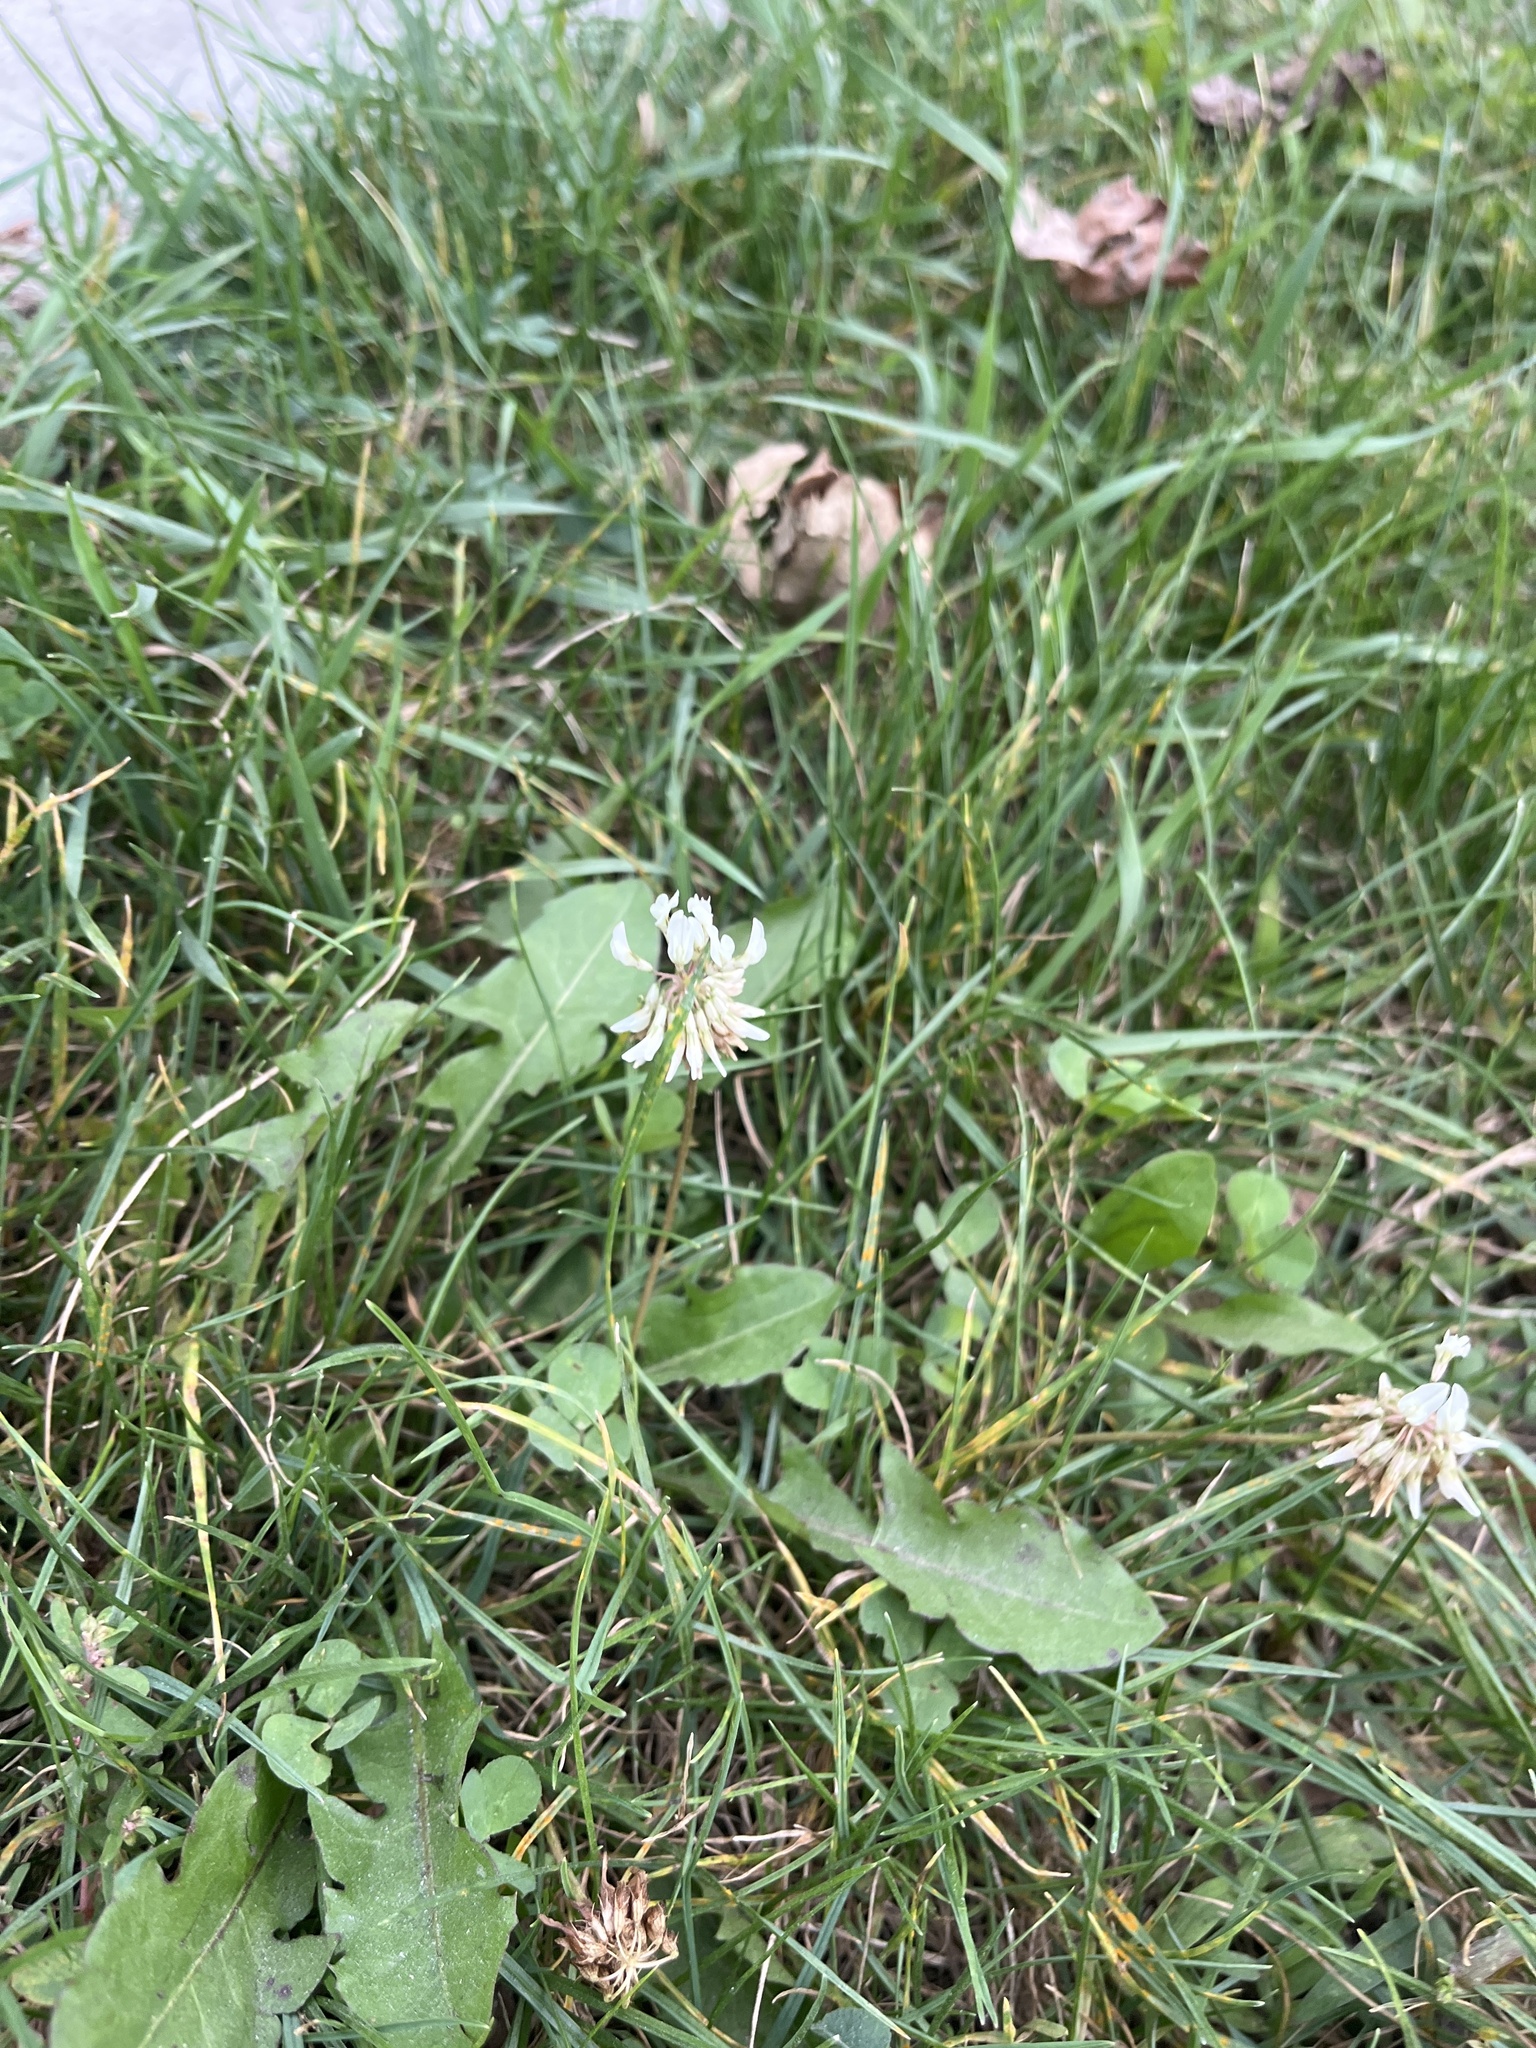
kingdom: Plantae
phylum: Tracheophyta
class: Magnoliopsida
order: Fabales
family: Fabaceae
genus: Trifolium
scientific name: Trifolium repens
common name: White clover
